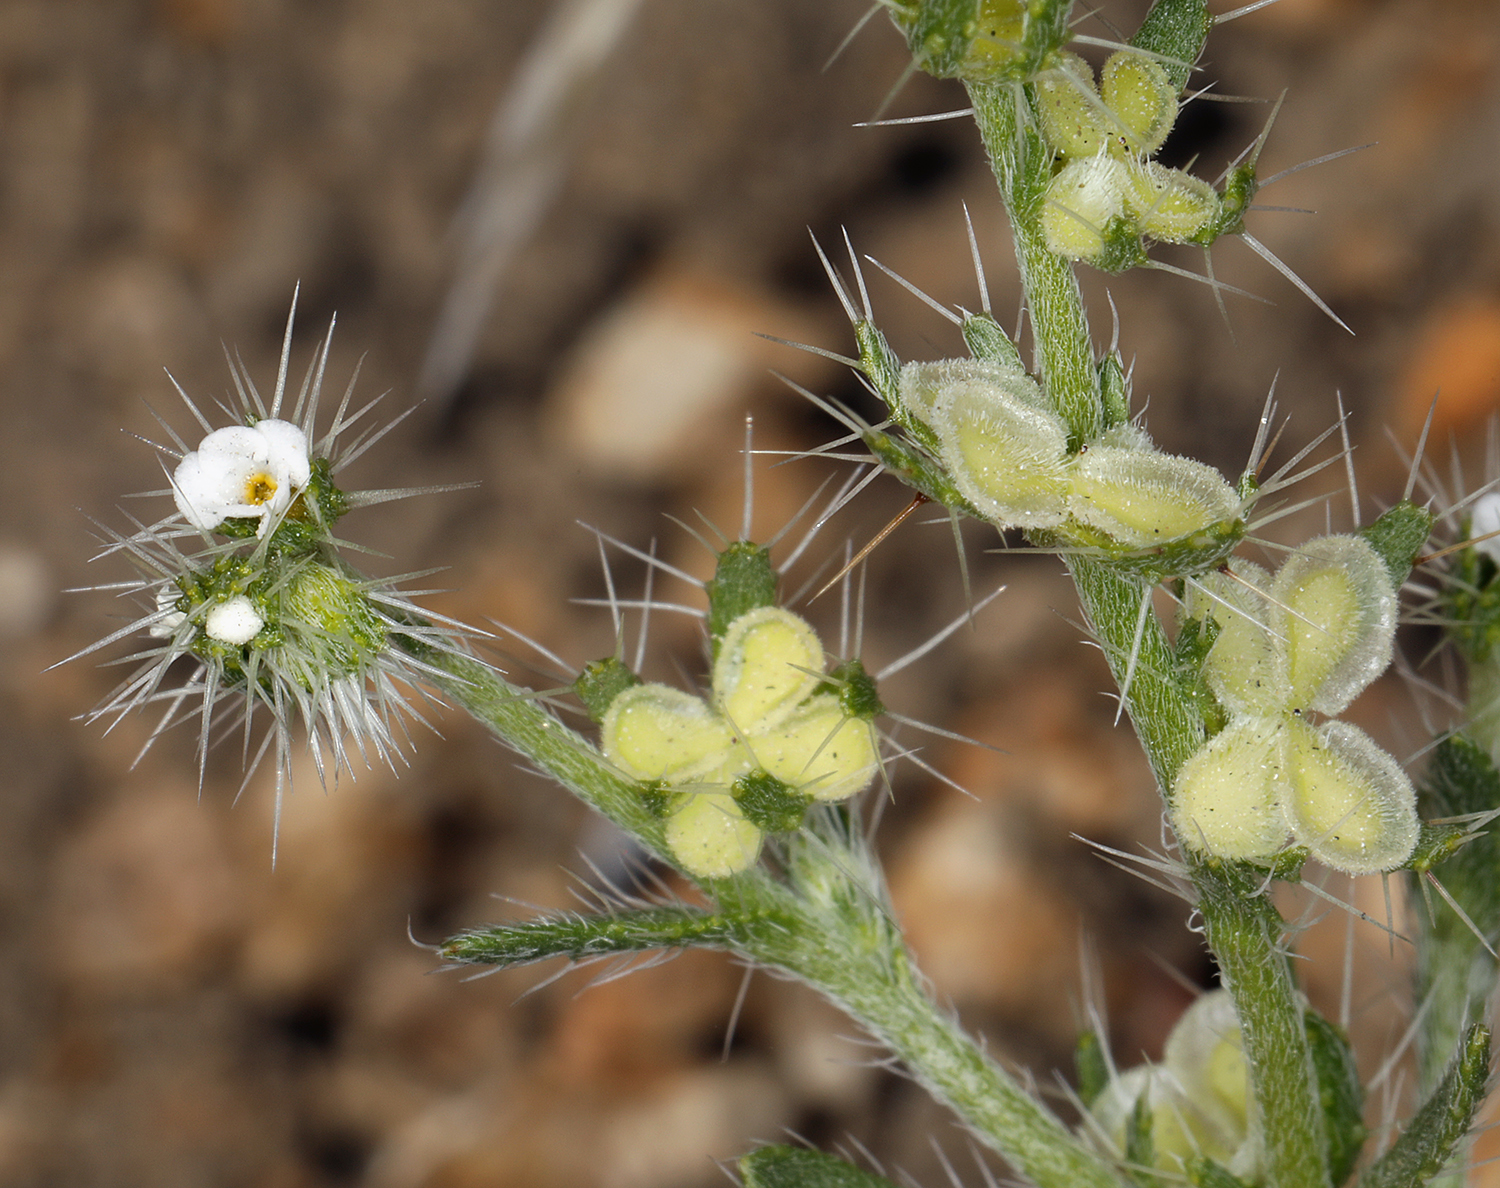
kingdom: Plantae
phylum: Tracheophyta
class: Magnoliopsida
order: Boraginales
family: Boraginaceae
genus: Pectocarya
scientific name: Pectocarya setosa
